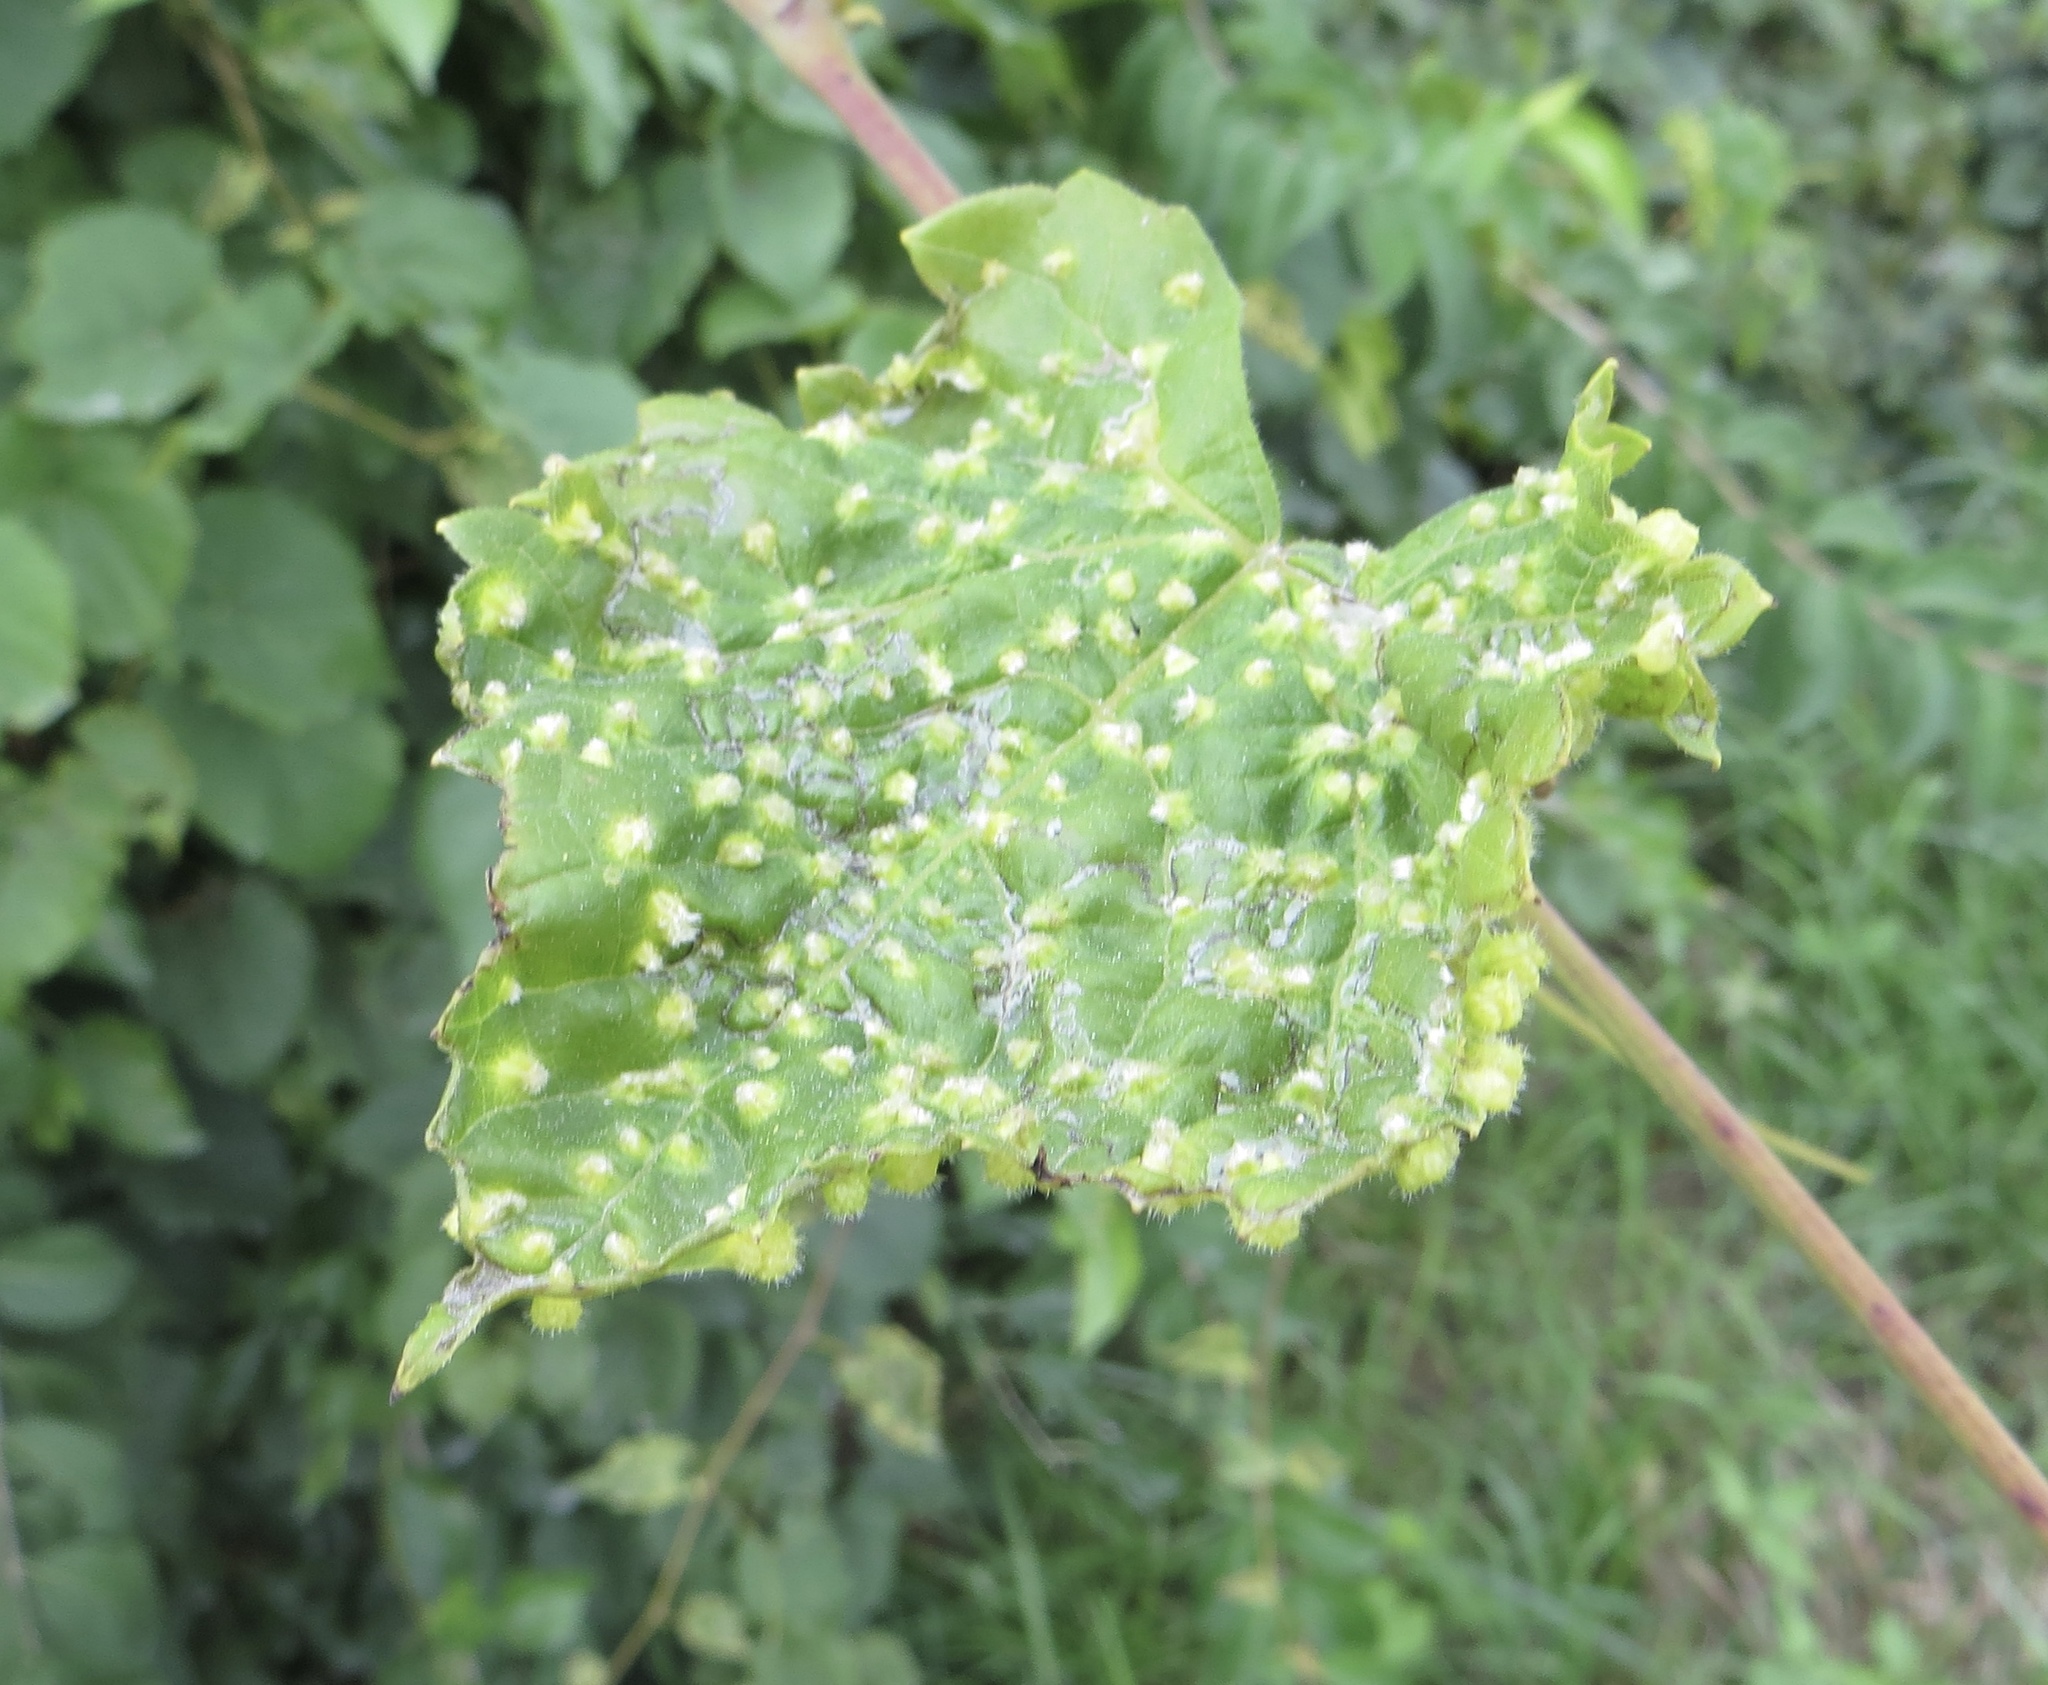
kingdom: Animalia
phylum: Arthropoda
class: Insecta
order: Hemiptera
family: Phylloxeridae
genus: Daktulosphaira
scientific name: Daktulosphaira vitifoliae
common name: Grape phylloxera
